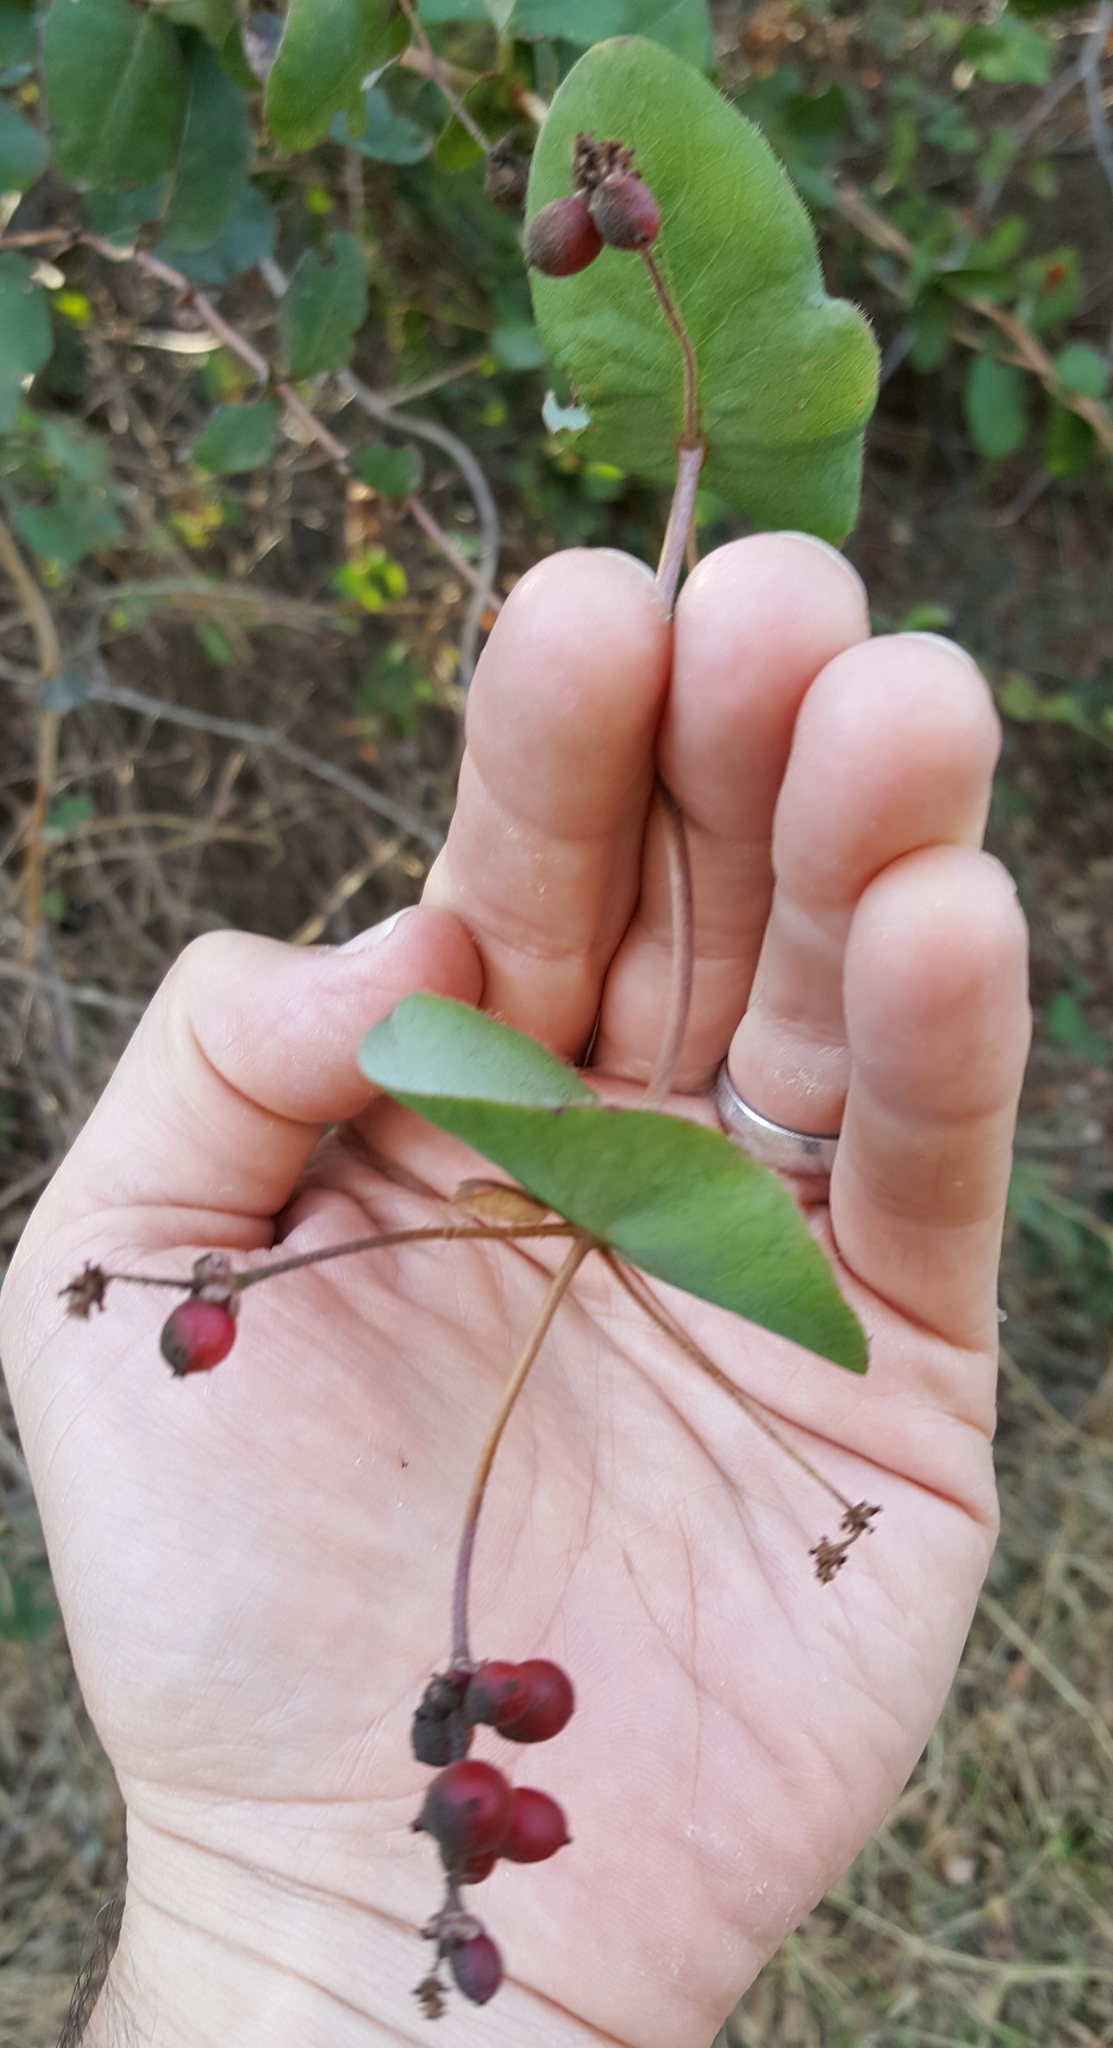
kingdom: Plantae
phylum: Tracheophyta
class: Magnoliopsida
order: Dipsacales
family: Caprifoliaceae
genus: Lonicera
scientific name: Lonicera hispidula
